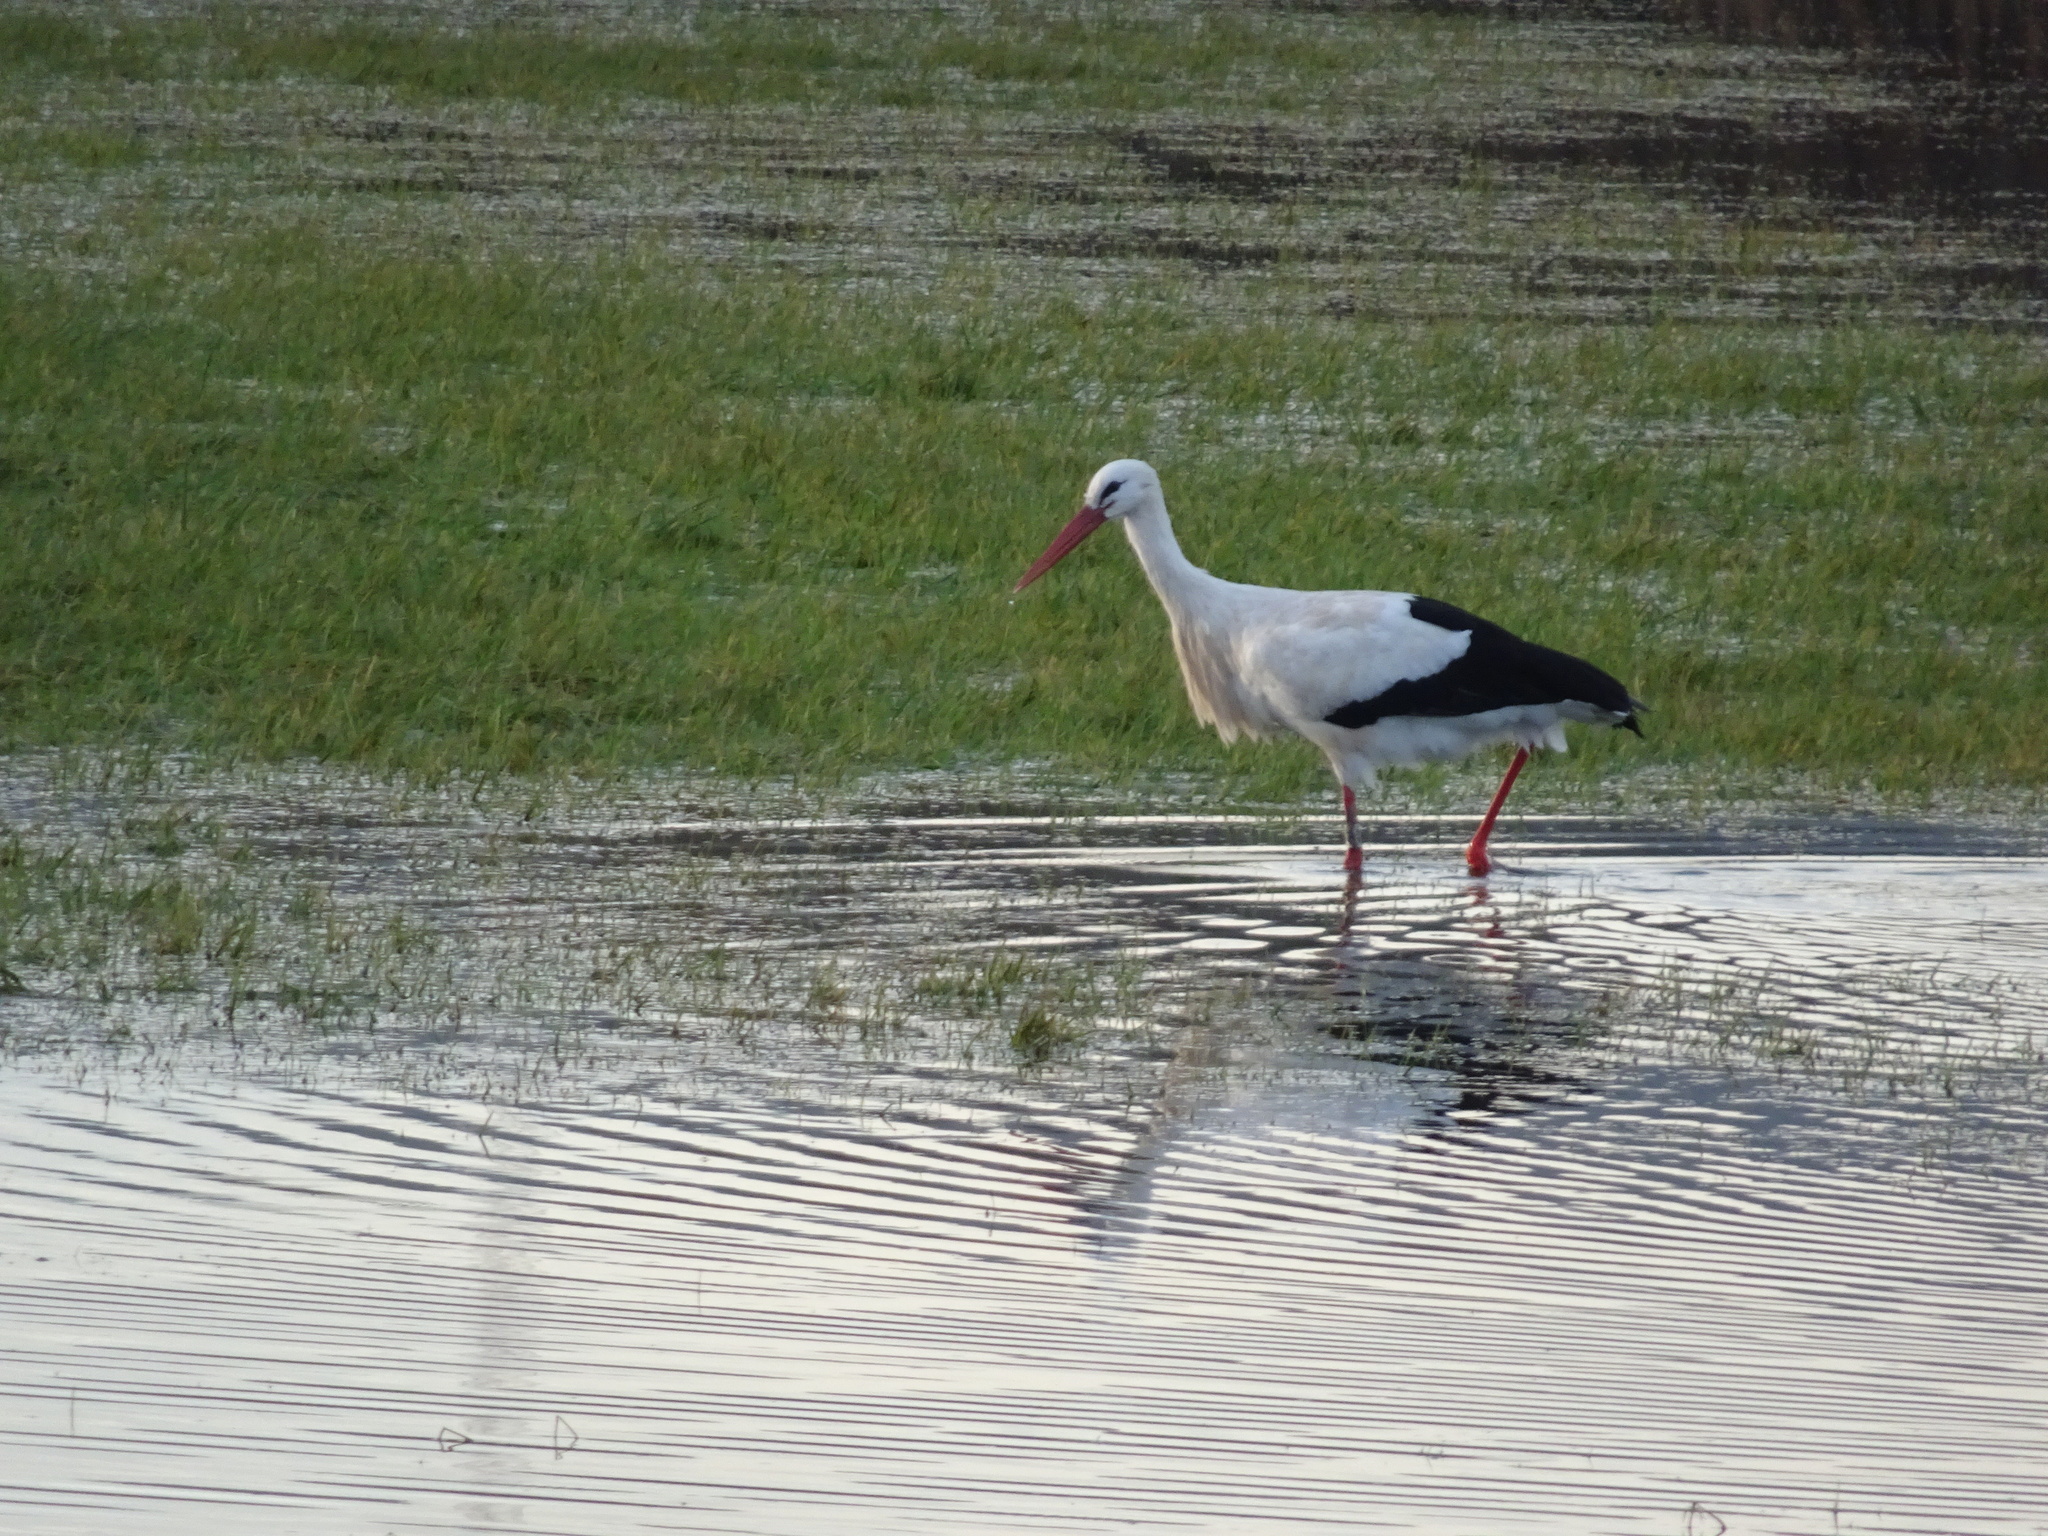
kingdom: Animalia
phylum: Chordata
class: Aves
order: Ciconiiformes
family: Ciconiidae
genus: Ciconia
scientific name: Ciconia ciconia
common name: White stork
